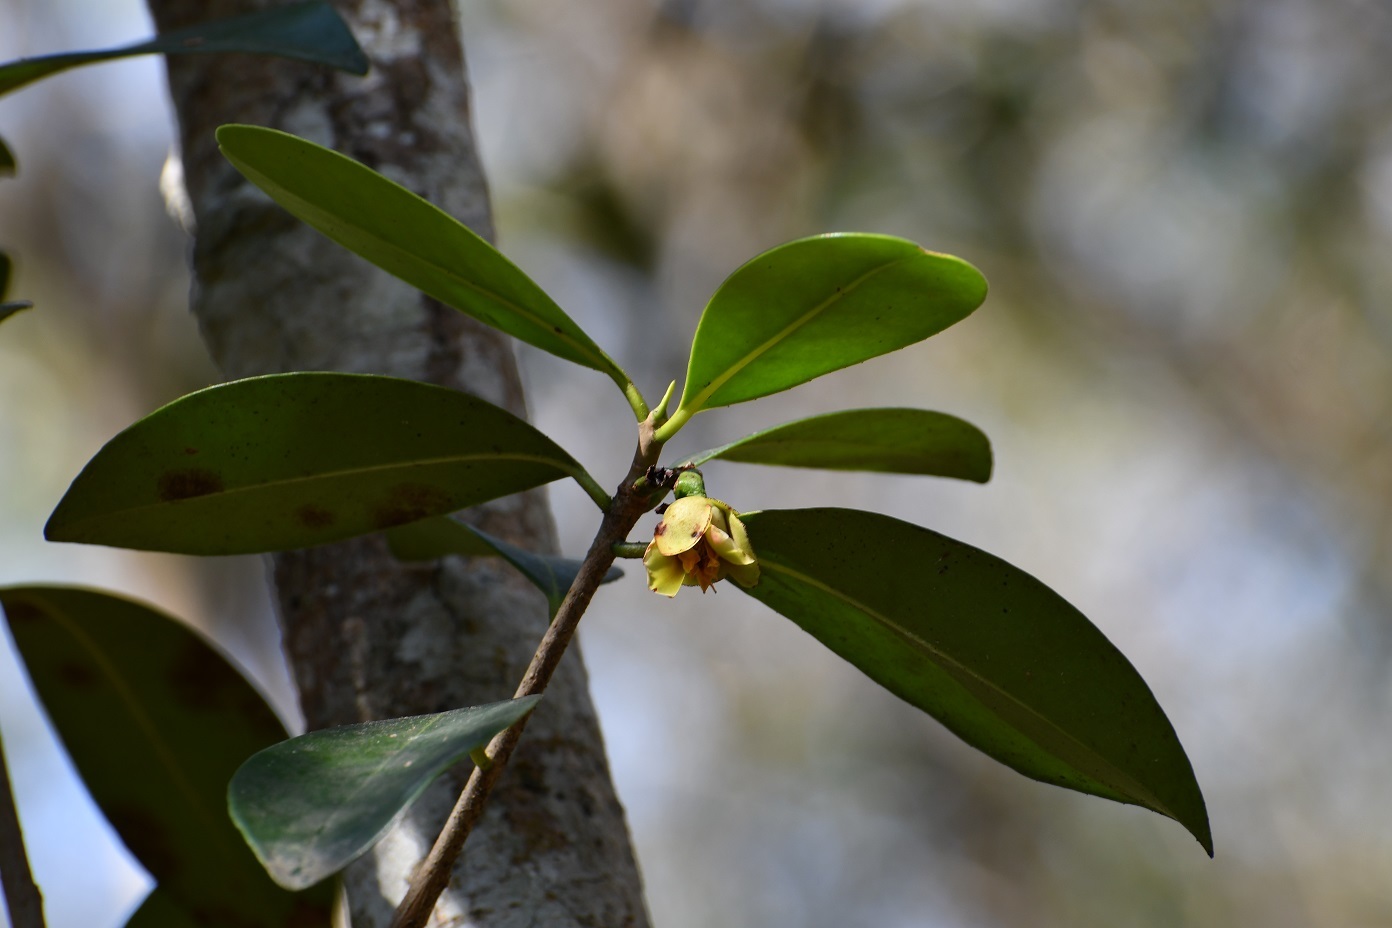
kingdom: Plantae
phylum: Tracheophyta
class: Magnoliopsida
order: Ericales
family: Pentaphylacaceae
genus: Ternstroemia
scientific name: Ternstroemia tepezapote
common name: Copey vera
